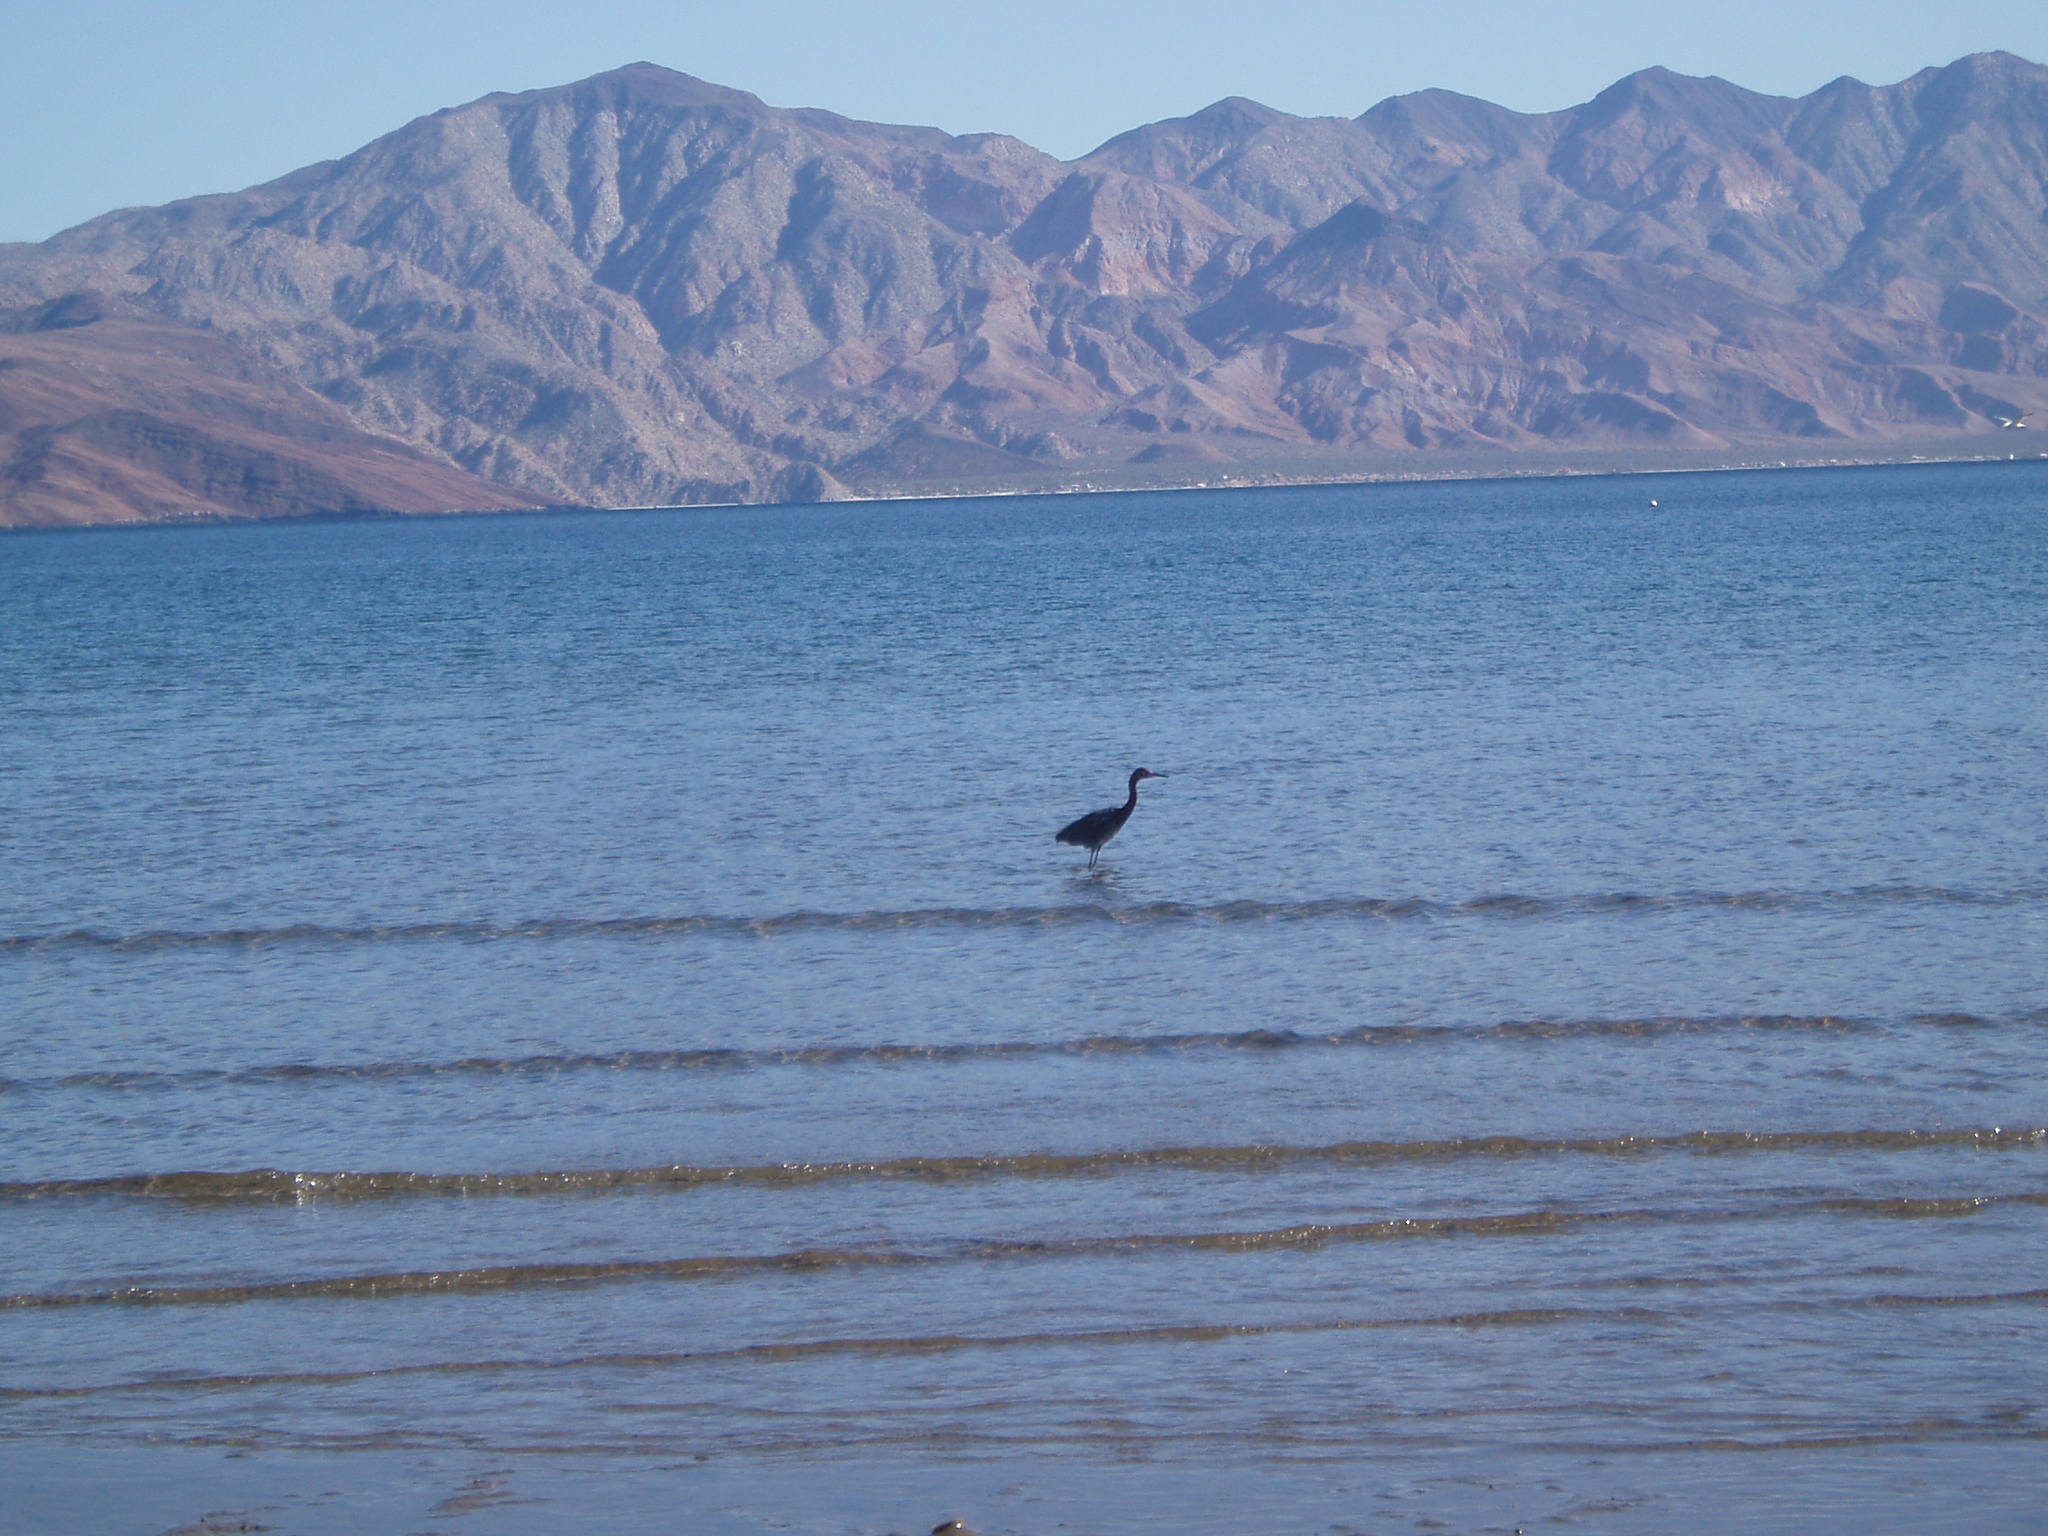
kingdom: Animalia
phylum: Chordata
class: Aves
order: Pelecaniformes
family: Ardeidae
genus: Egretta
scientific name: Egretta rufescens
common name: Reddish egret
